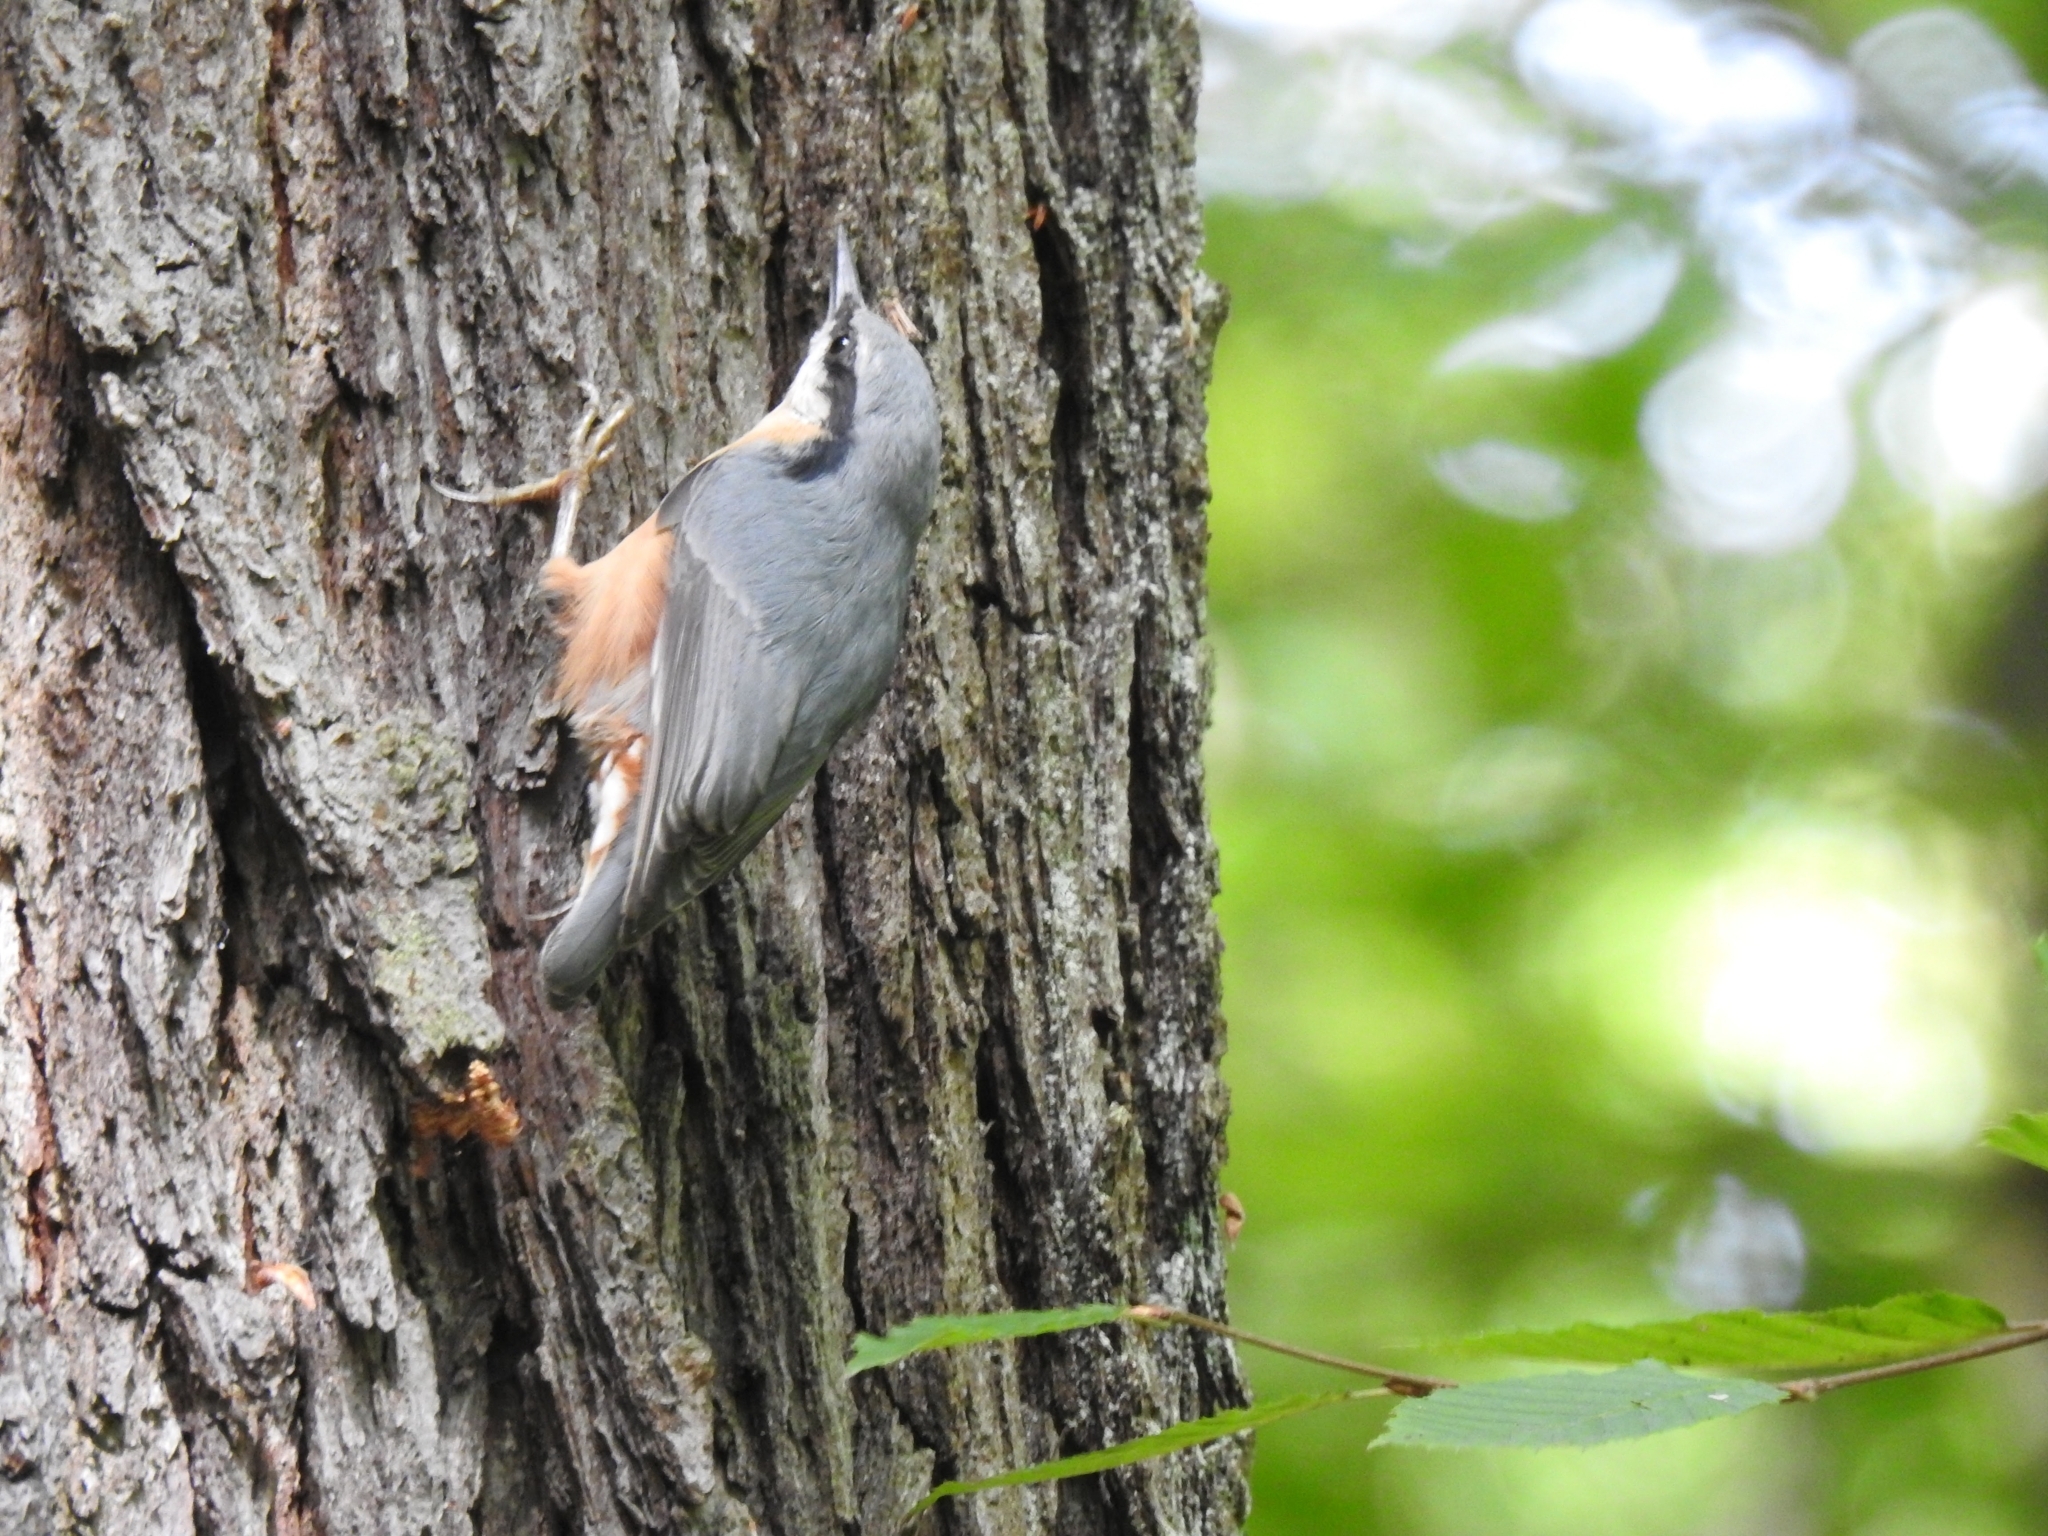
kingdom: Animalia
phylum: Chordata
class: Aves
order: Passeriformes
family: Sittidae
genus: Sitta
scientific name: Sitta europaea
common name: Eurasian nuthatch
